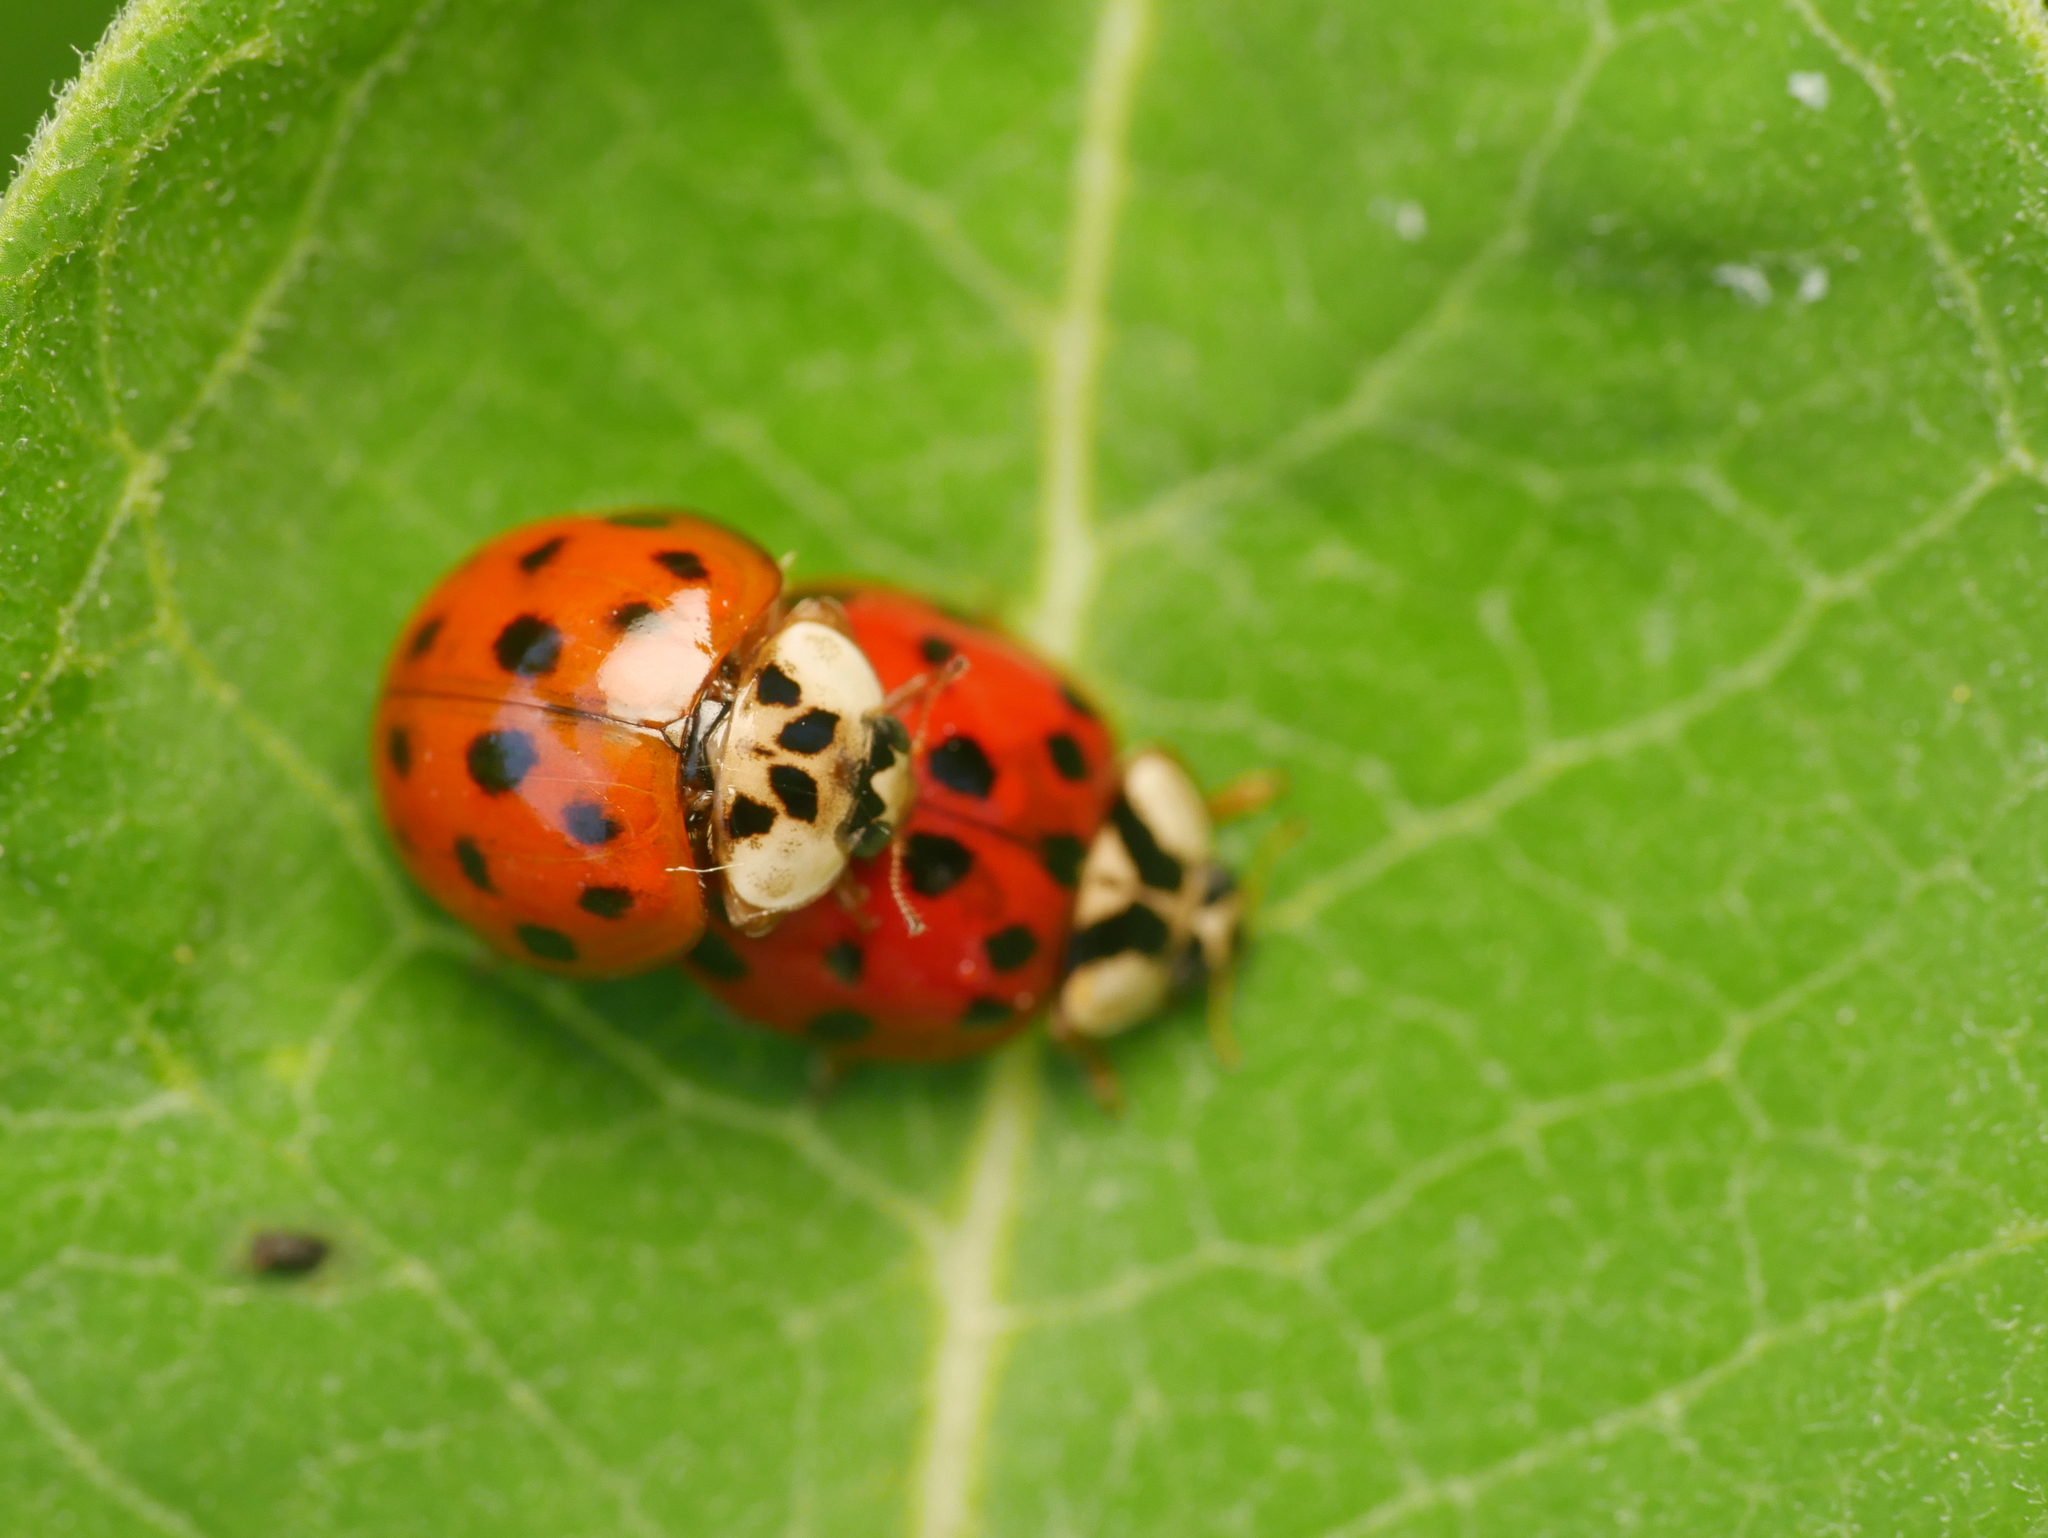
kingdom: Animalia
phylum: Arthropoda
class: Insecta
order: Coleoptera
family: Coccinellidae
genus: Harmonia
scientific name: Harmonia axyridis
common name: Harlequin ladybird
